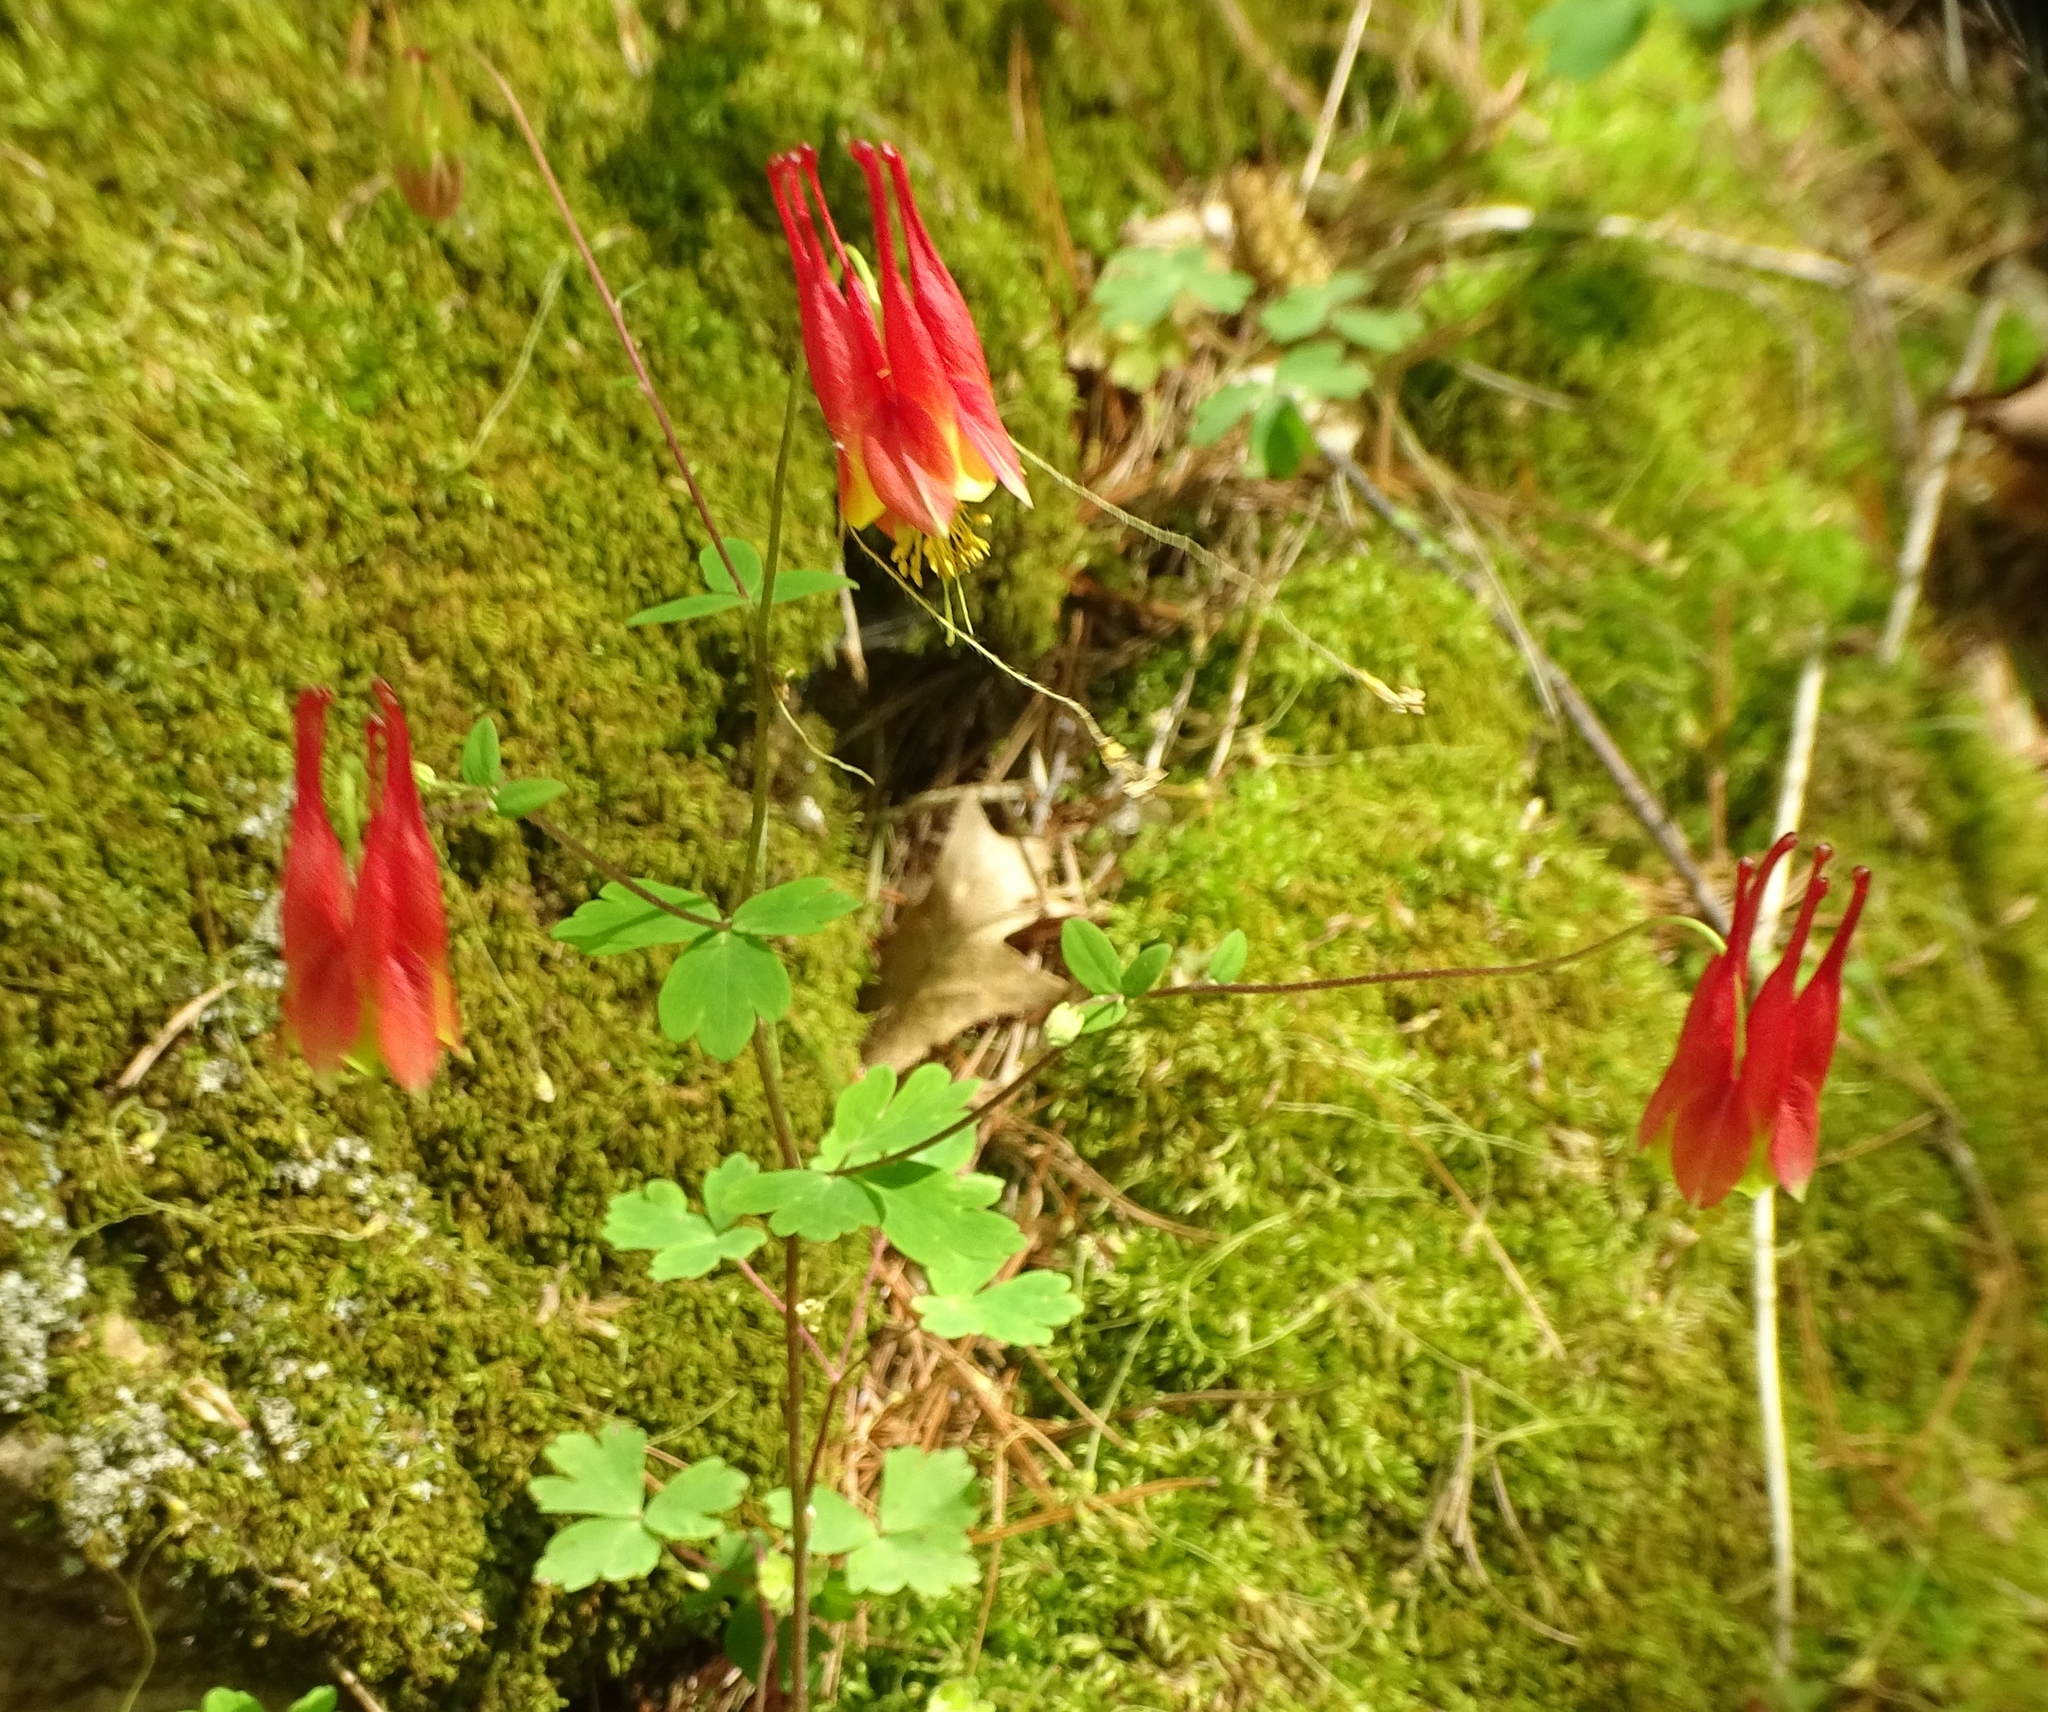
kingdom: Plantae
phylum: Tracheophyta
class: Magnoliopsida
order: Ranunculales
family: Ranunculaceae
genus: Aquilegia
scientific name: Aquilegia canadensis
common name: American columbine
